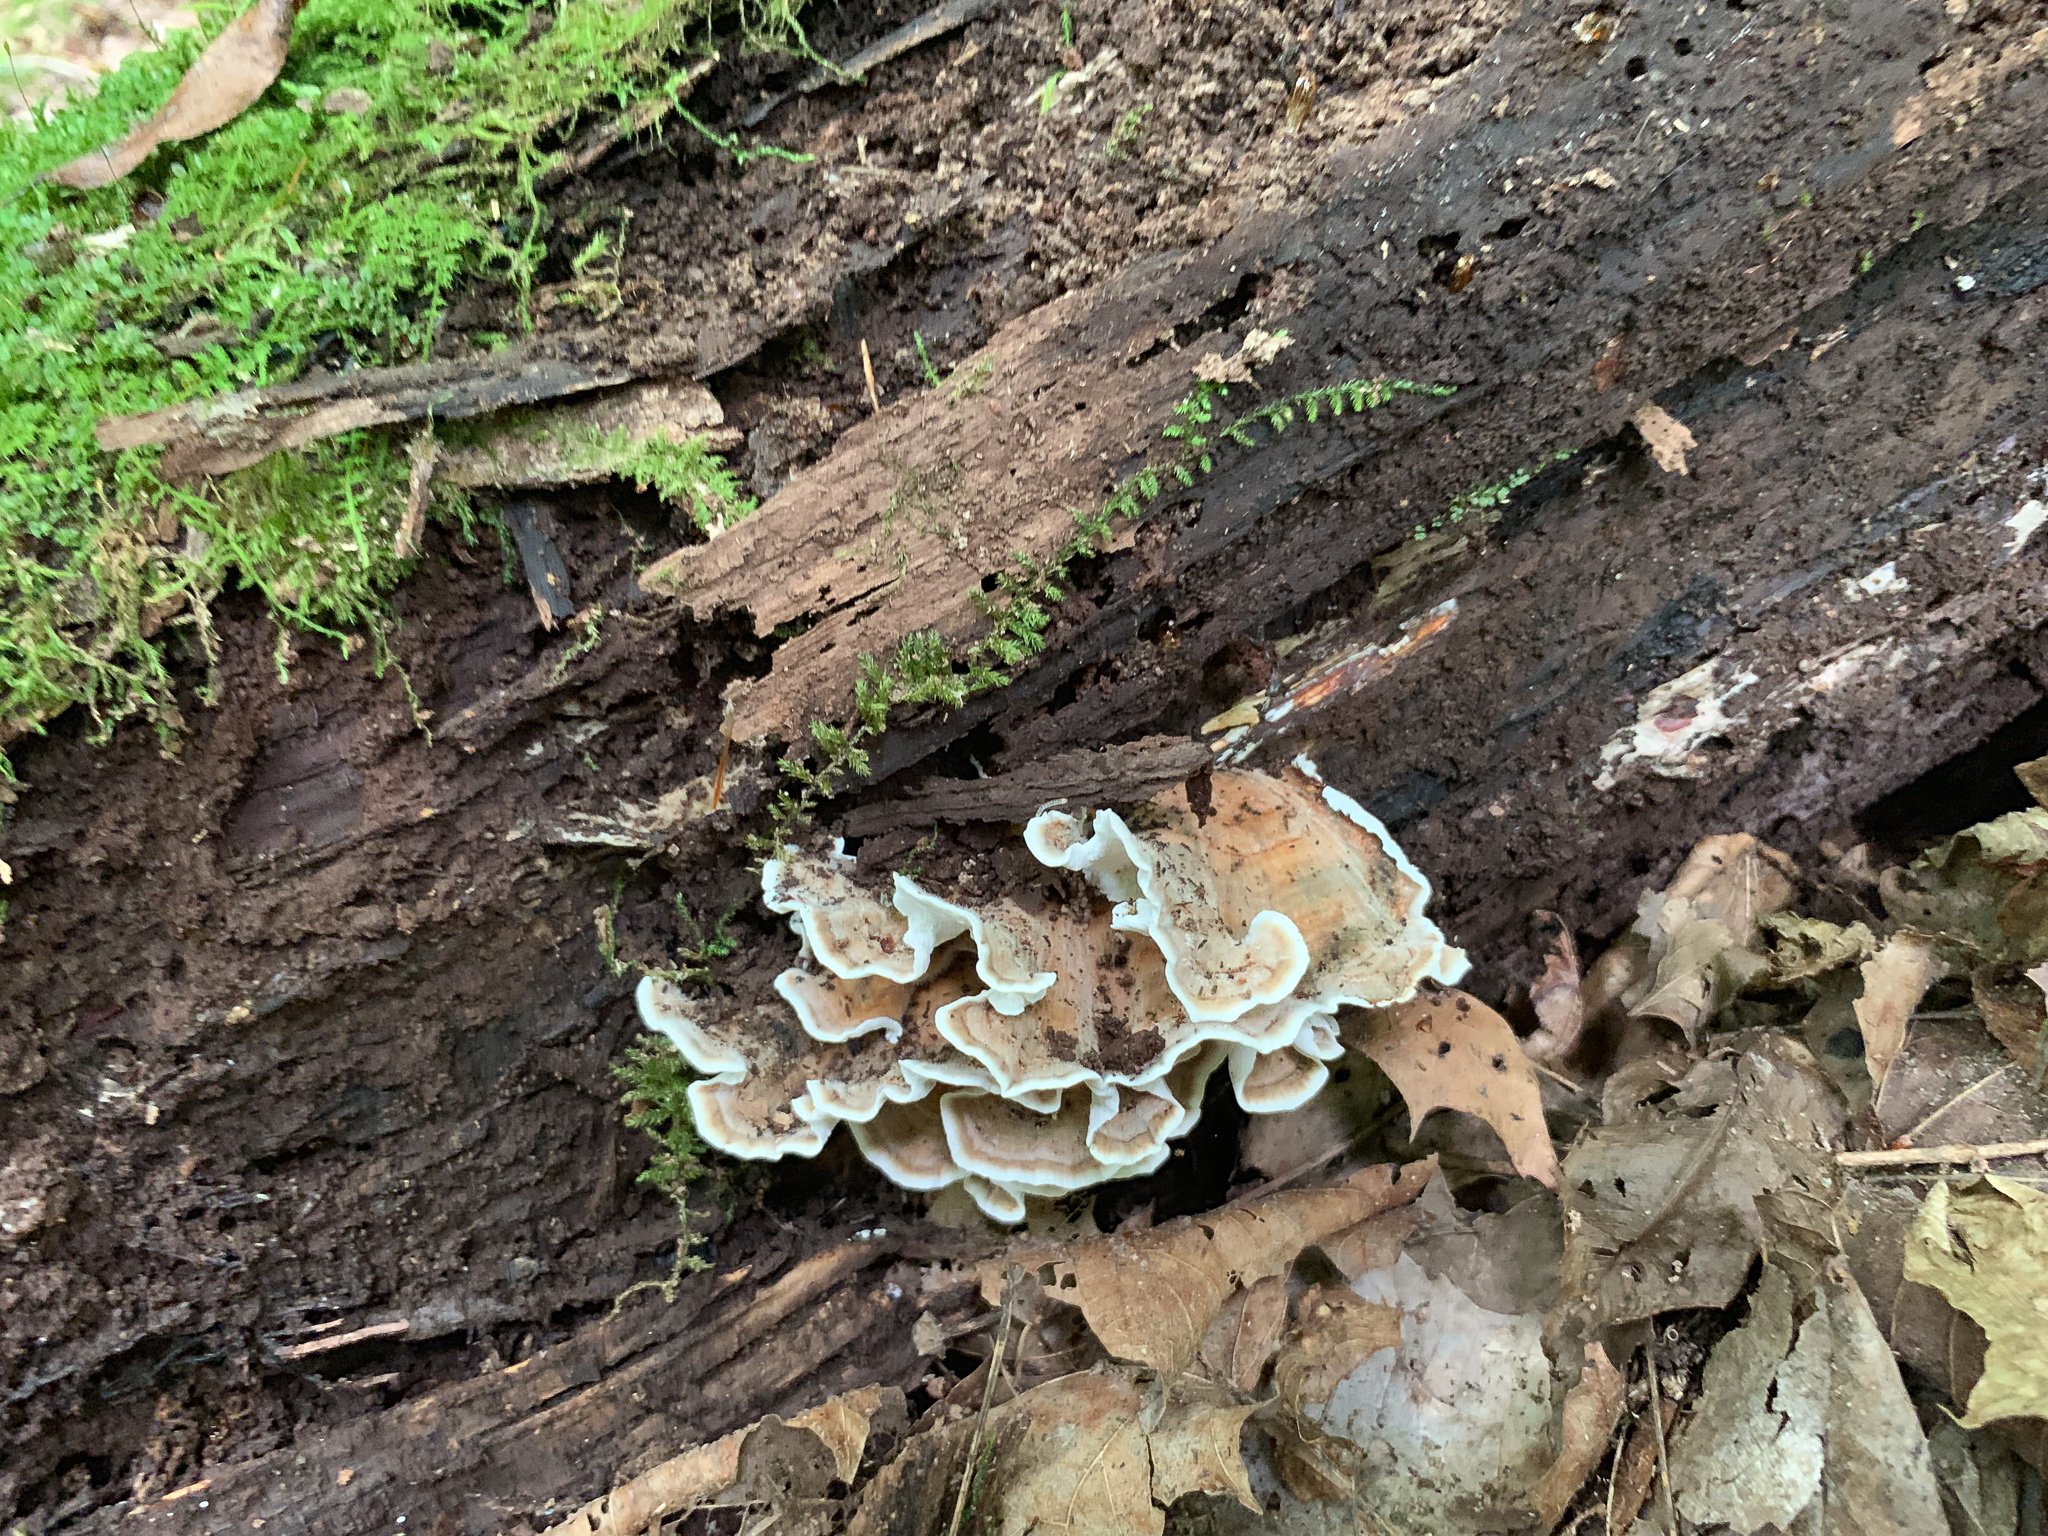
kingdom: Fungi
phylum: Basidiomycota
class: Agaricomycetes
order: Polyporales
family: Polyporaceae
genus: Trametes
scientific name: Trametes versicolor
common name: Turkeytail
